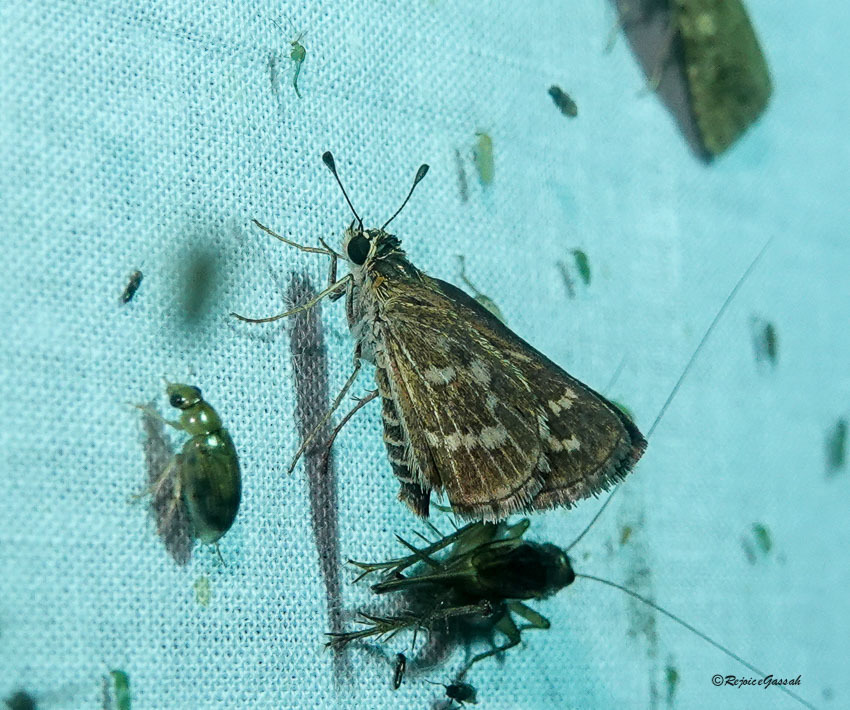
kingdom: Animalia
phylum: Arthropoda
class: Insecta
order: Lepidoptera
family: Hesperiidae
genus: Taractrocera
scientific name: Taractrocera maevius
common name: Common grass-dart
